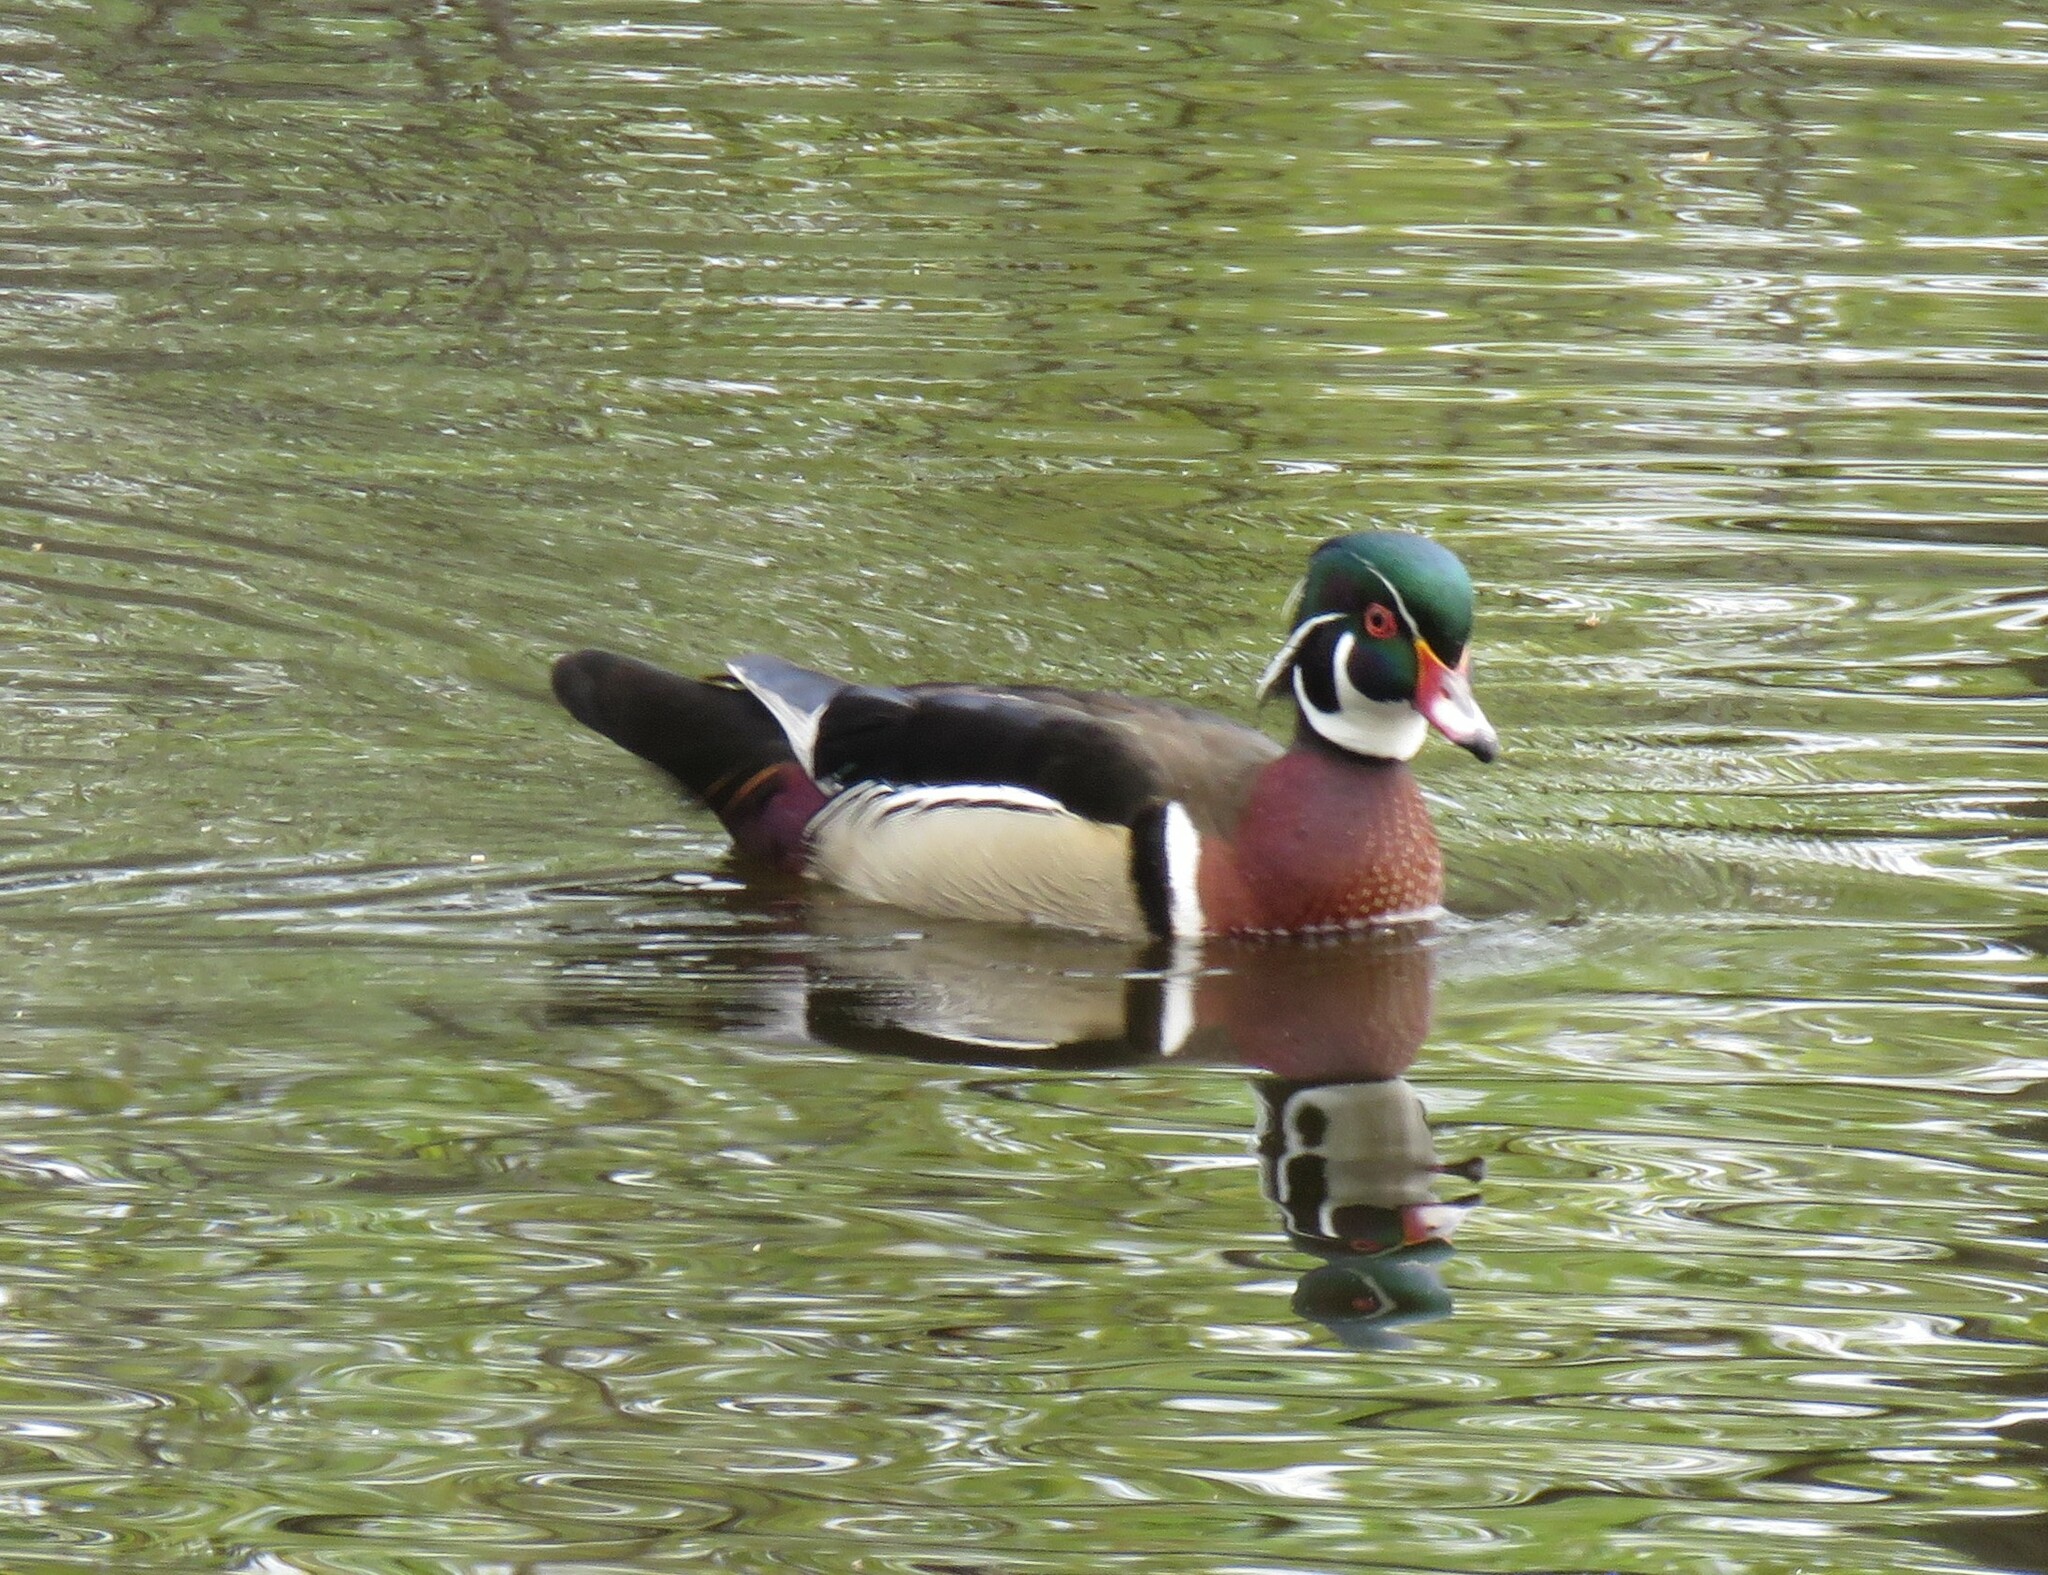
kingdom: Animalia
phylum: Chordata
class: Aves
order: Anseriformes
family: Anatidae
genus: Aix
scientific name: Aix sponsa
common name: Wood duck
